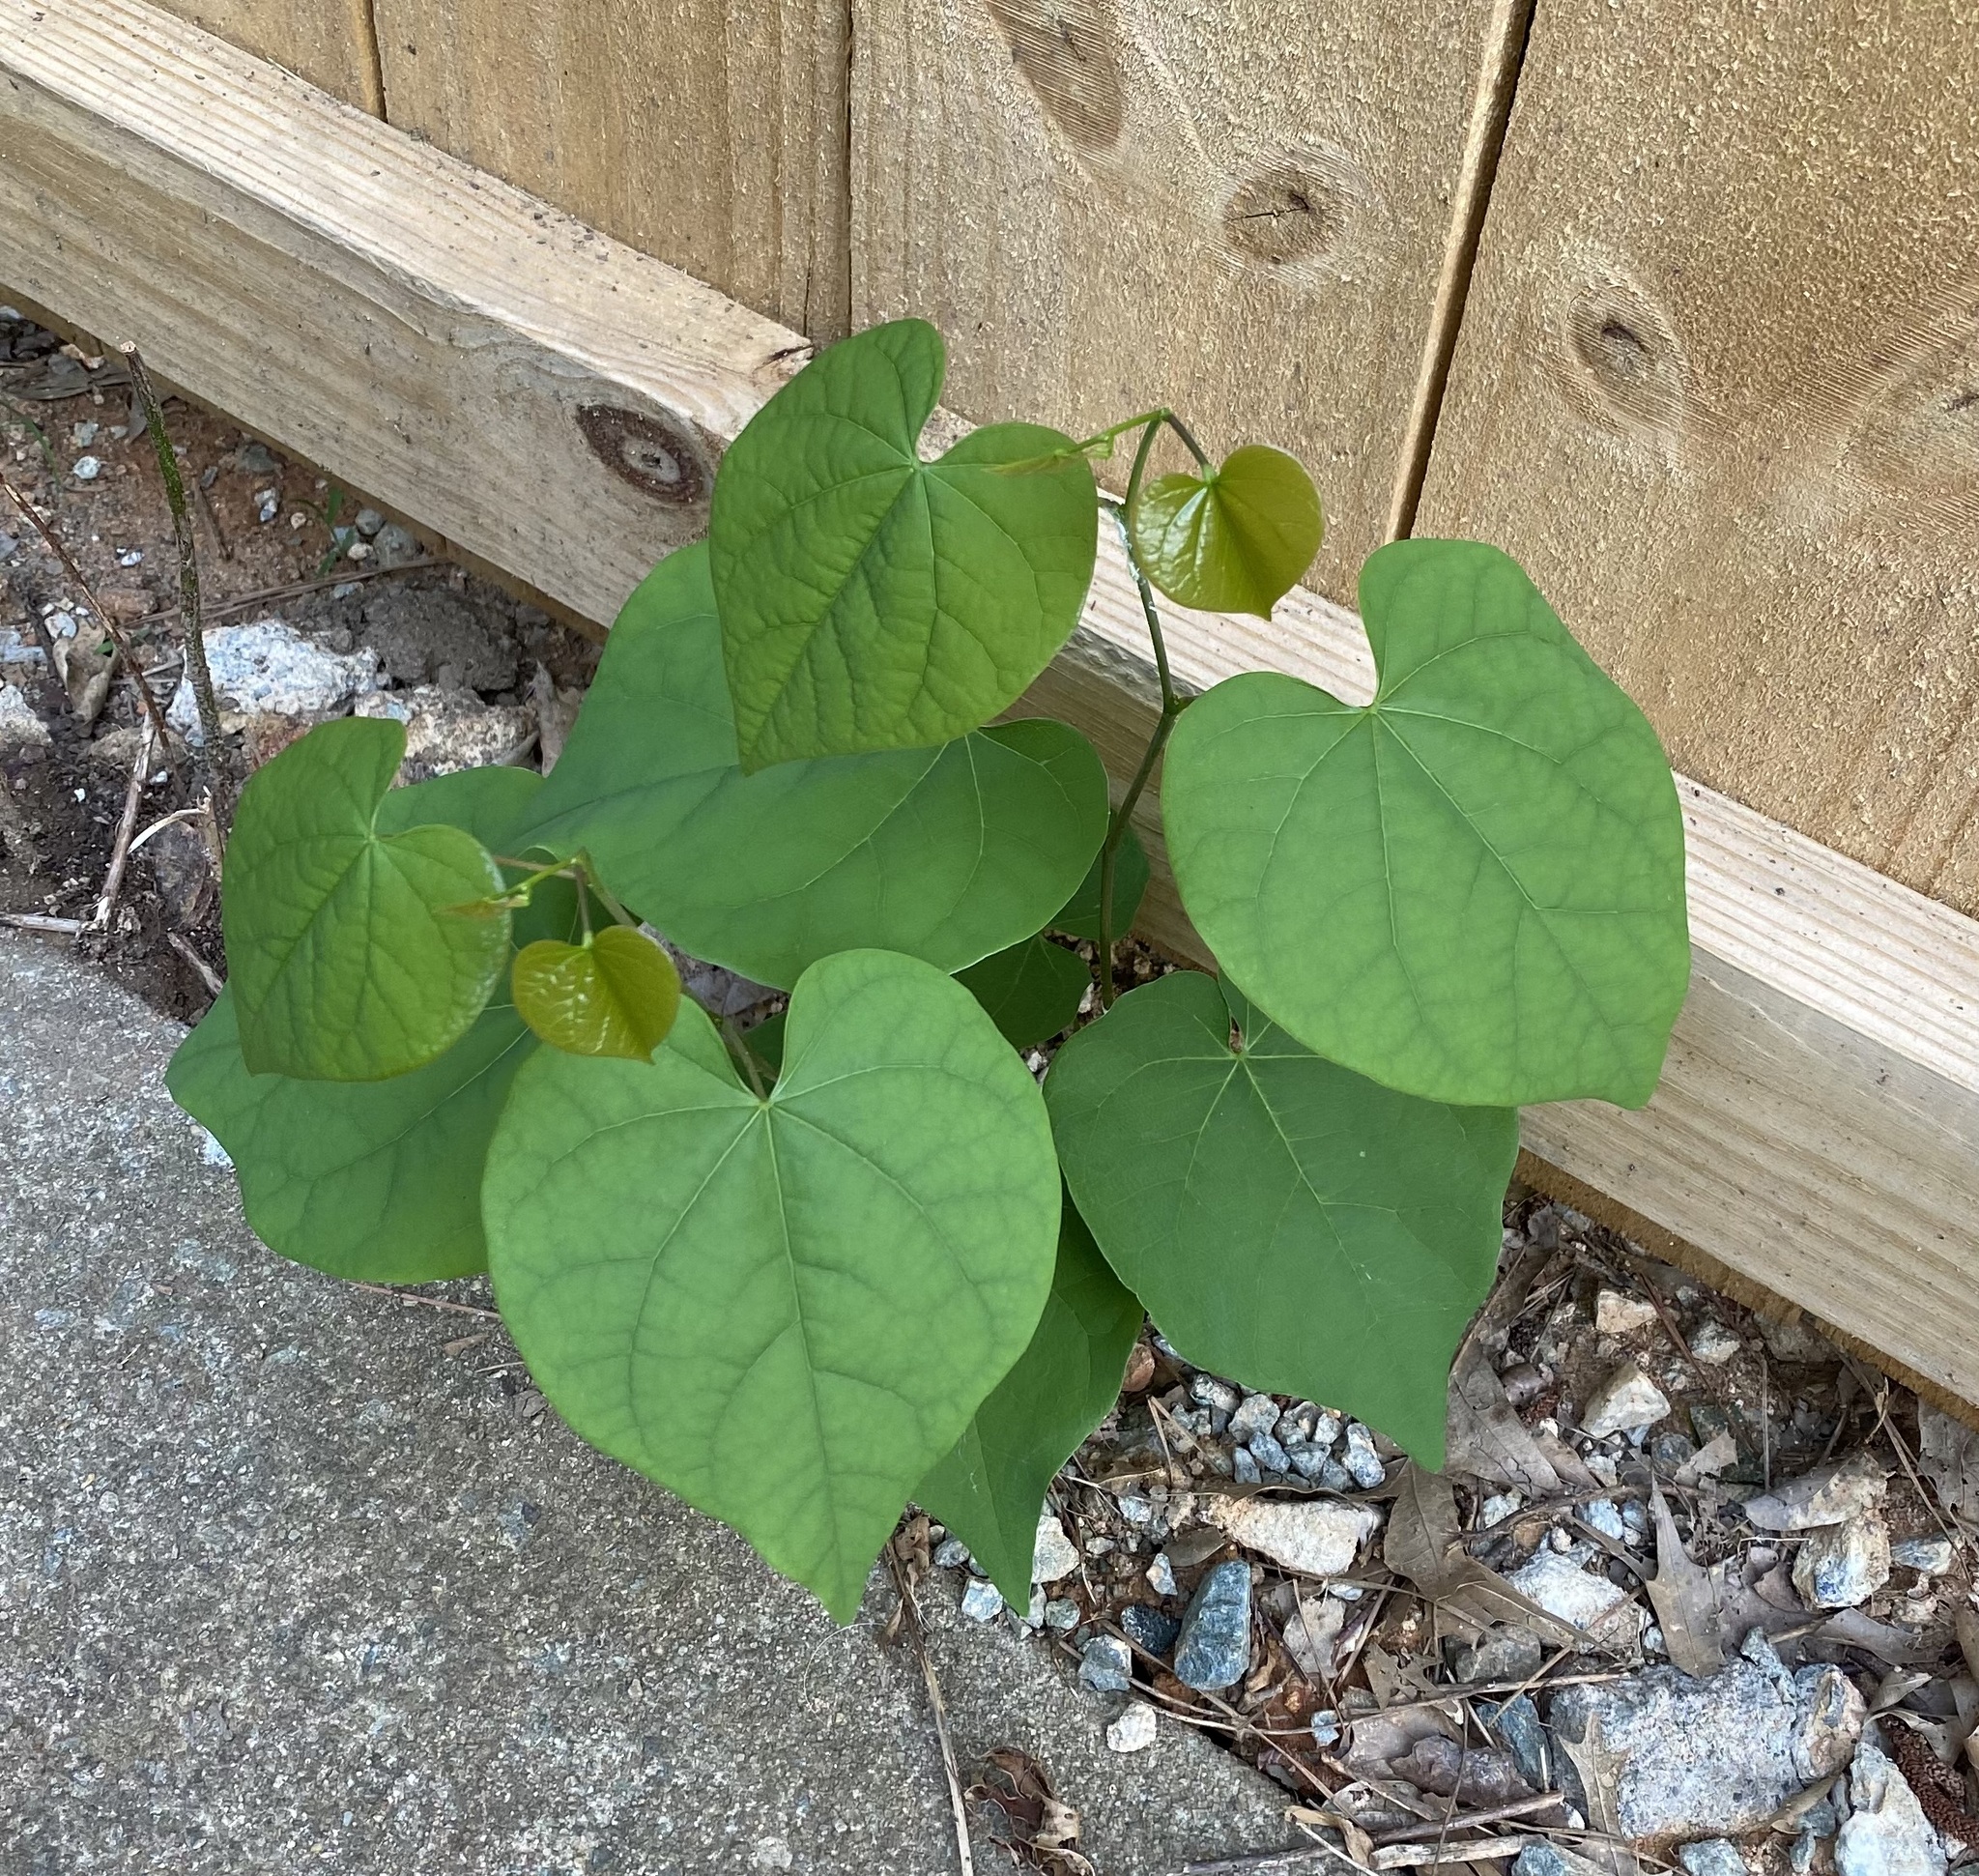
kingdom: Plantae
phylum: Tracheophyta
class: Magnoliopsida
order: Fabales
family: Fabaceae
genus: Cercis
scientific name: Cercis canadensis
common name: Eastern redbud
